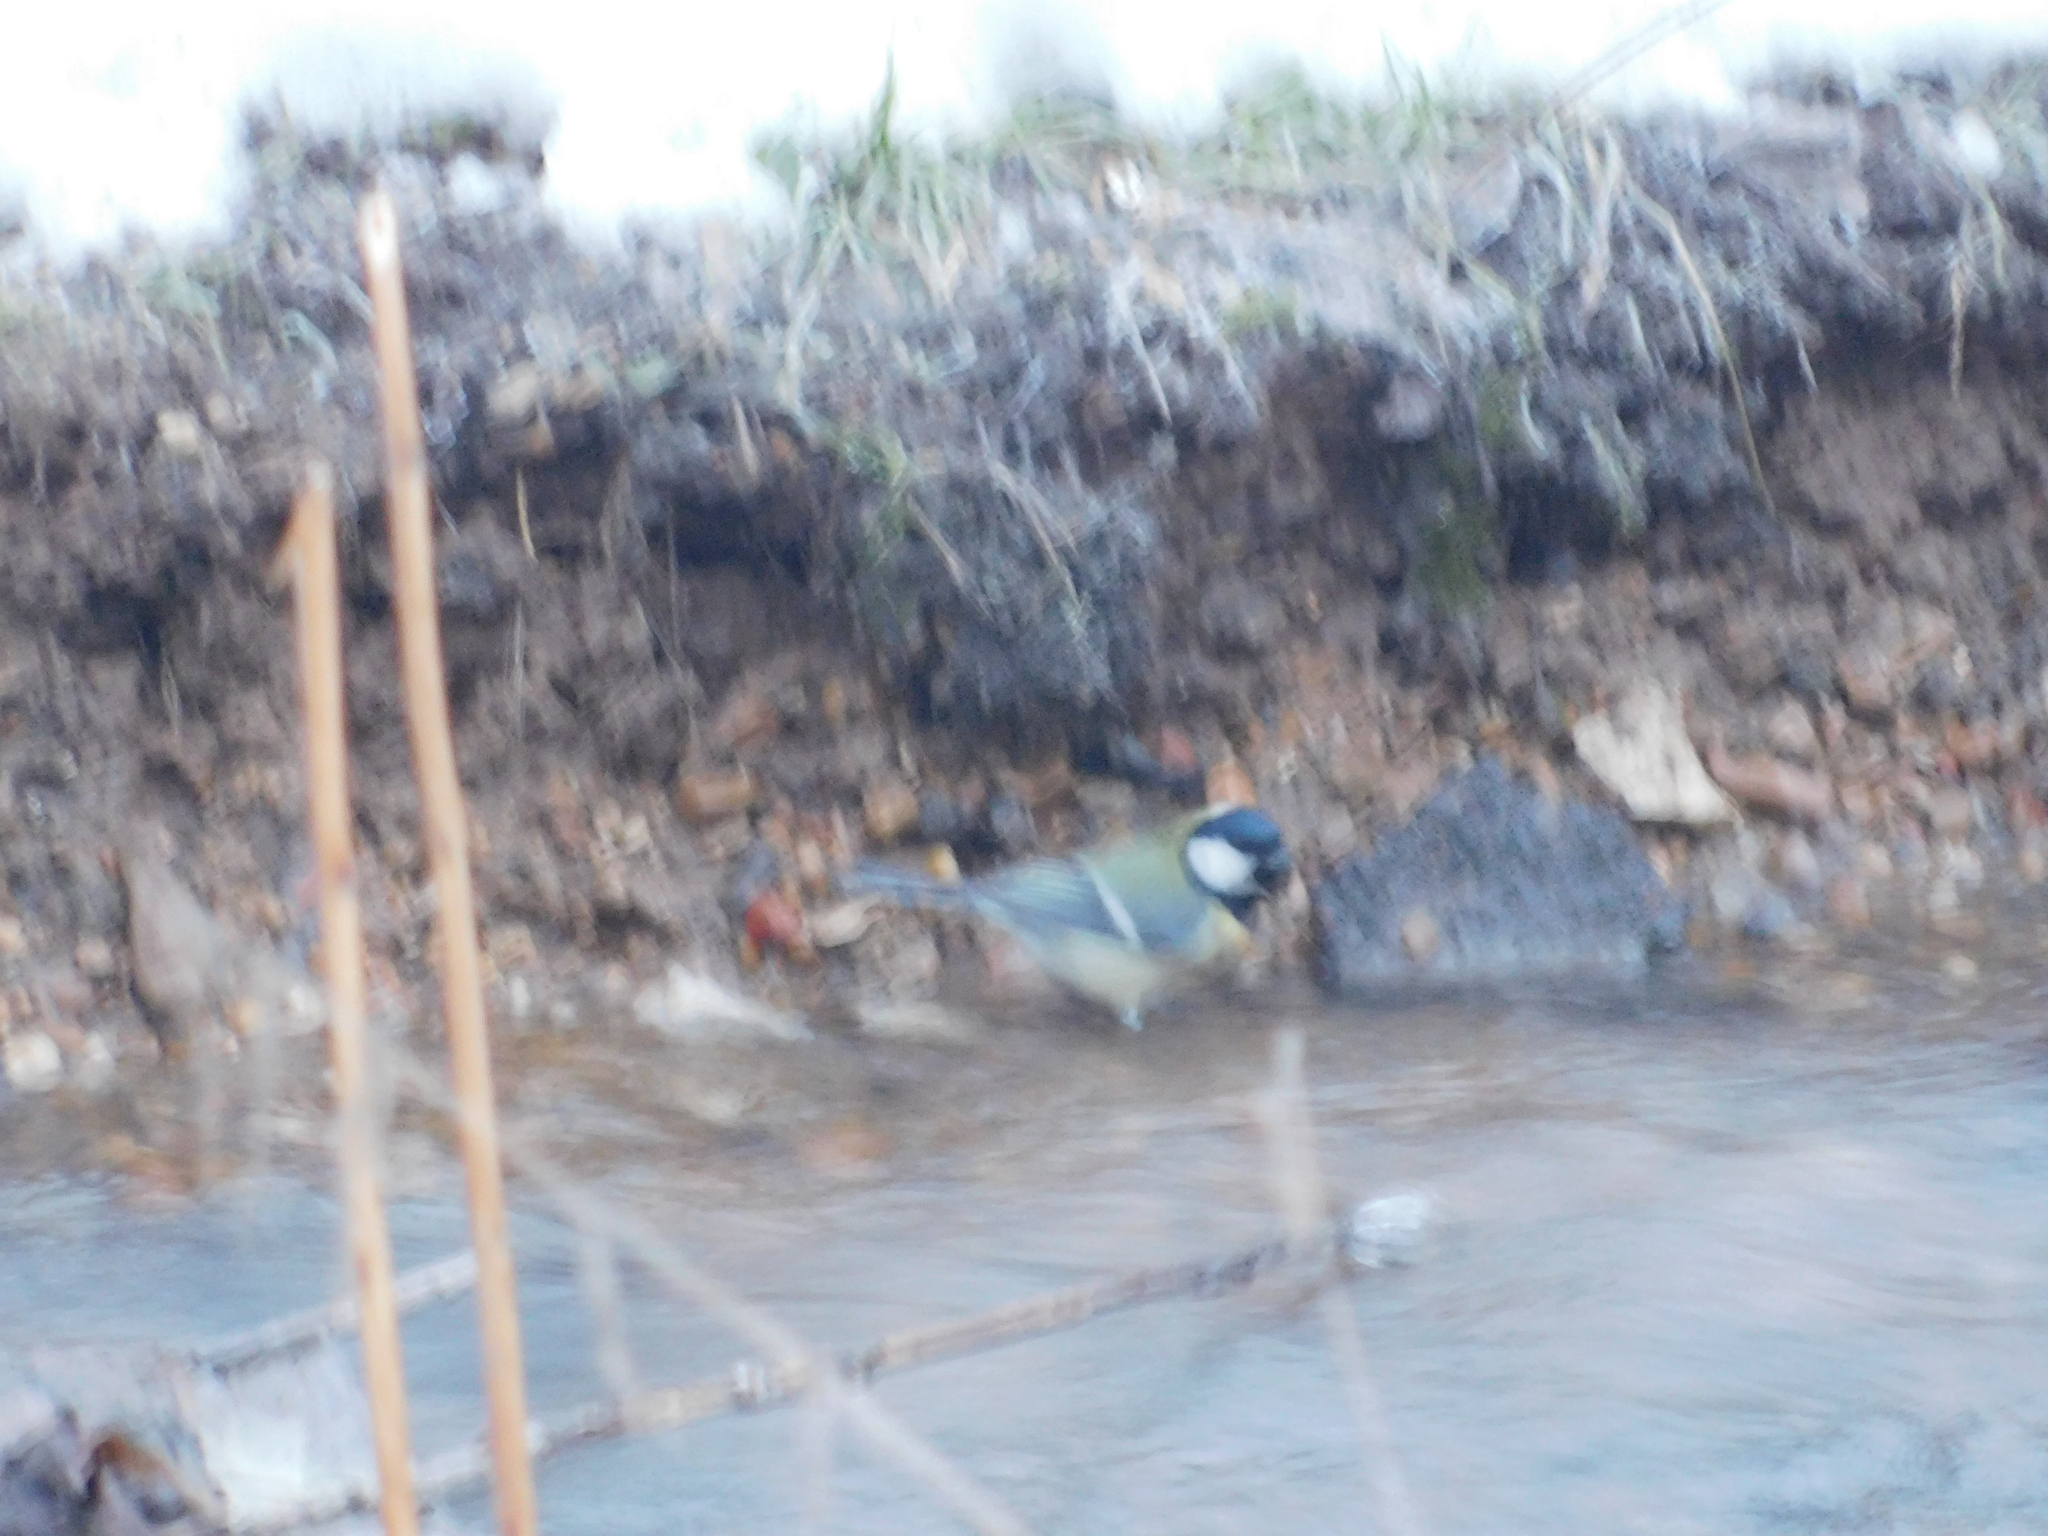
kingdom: Animalia
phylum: Chordata
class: Aves
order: Passeriformes
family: Paridae
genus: Parus
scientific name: Parus major
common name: Great tit
